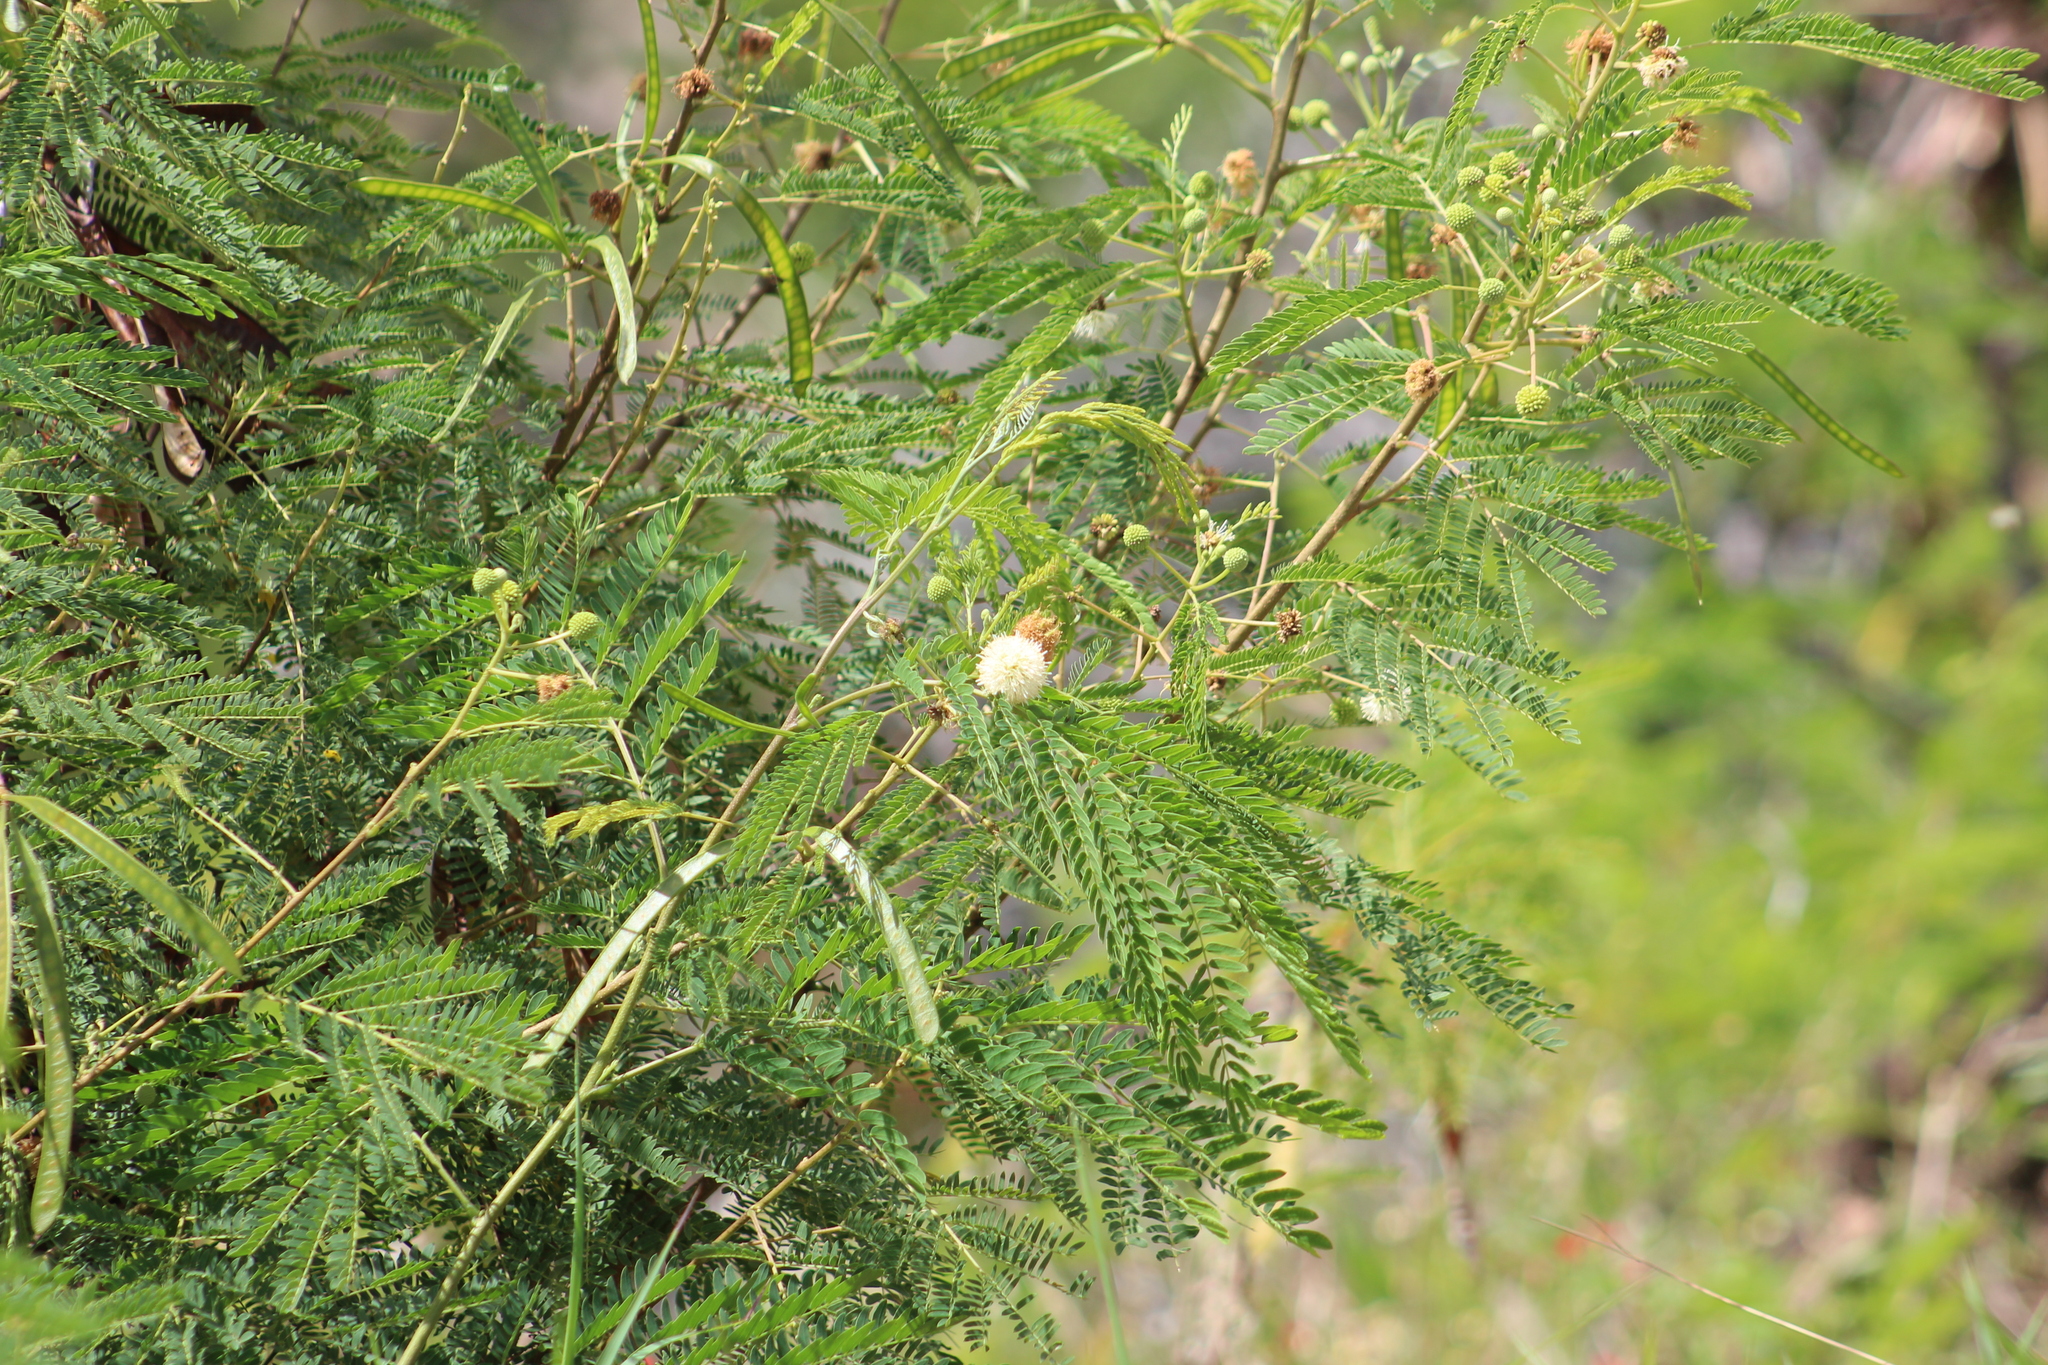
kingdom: Plantae
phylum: Tracheophyta
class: Magnoliopsida
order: Fabales
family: Fabaceae
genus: Leucaena
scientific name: Leucaena leucocephala
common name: White leadtree
